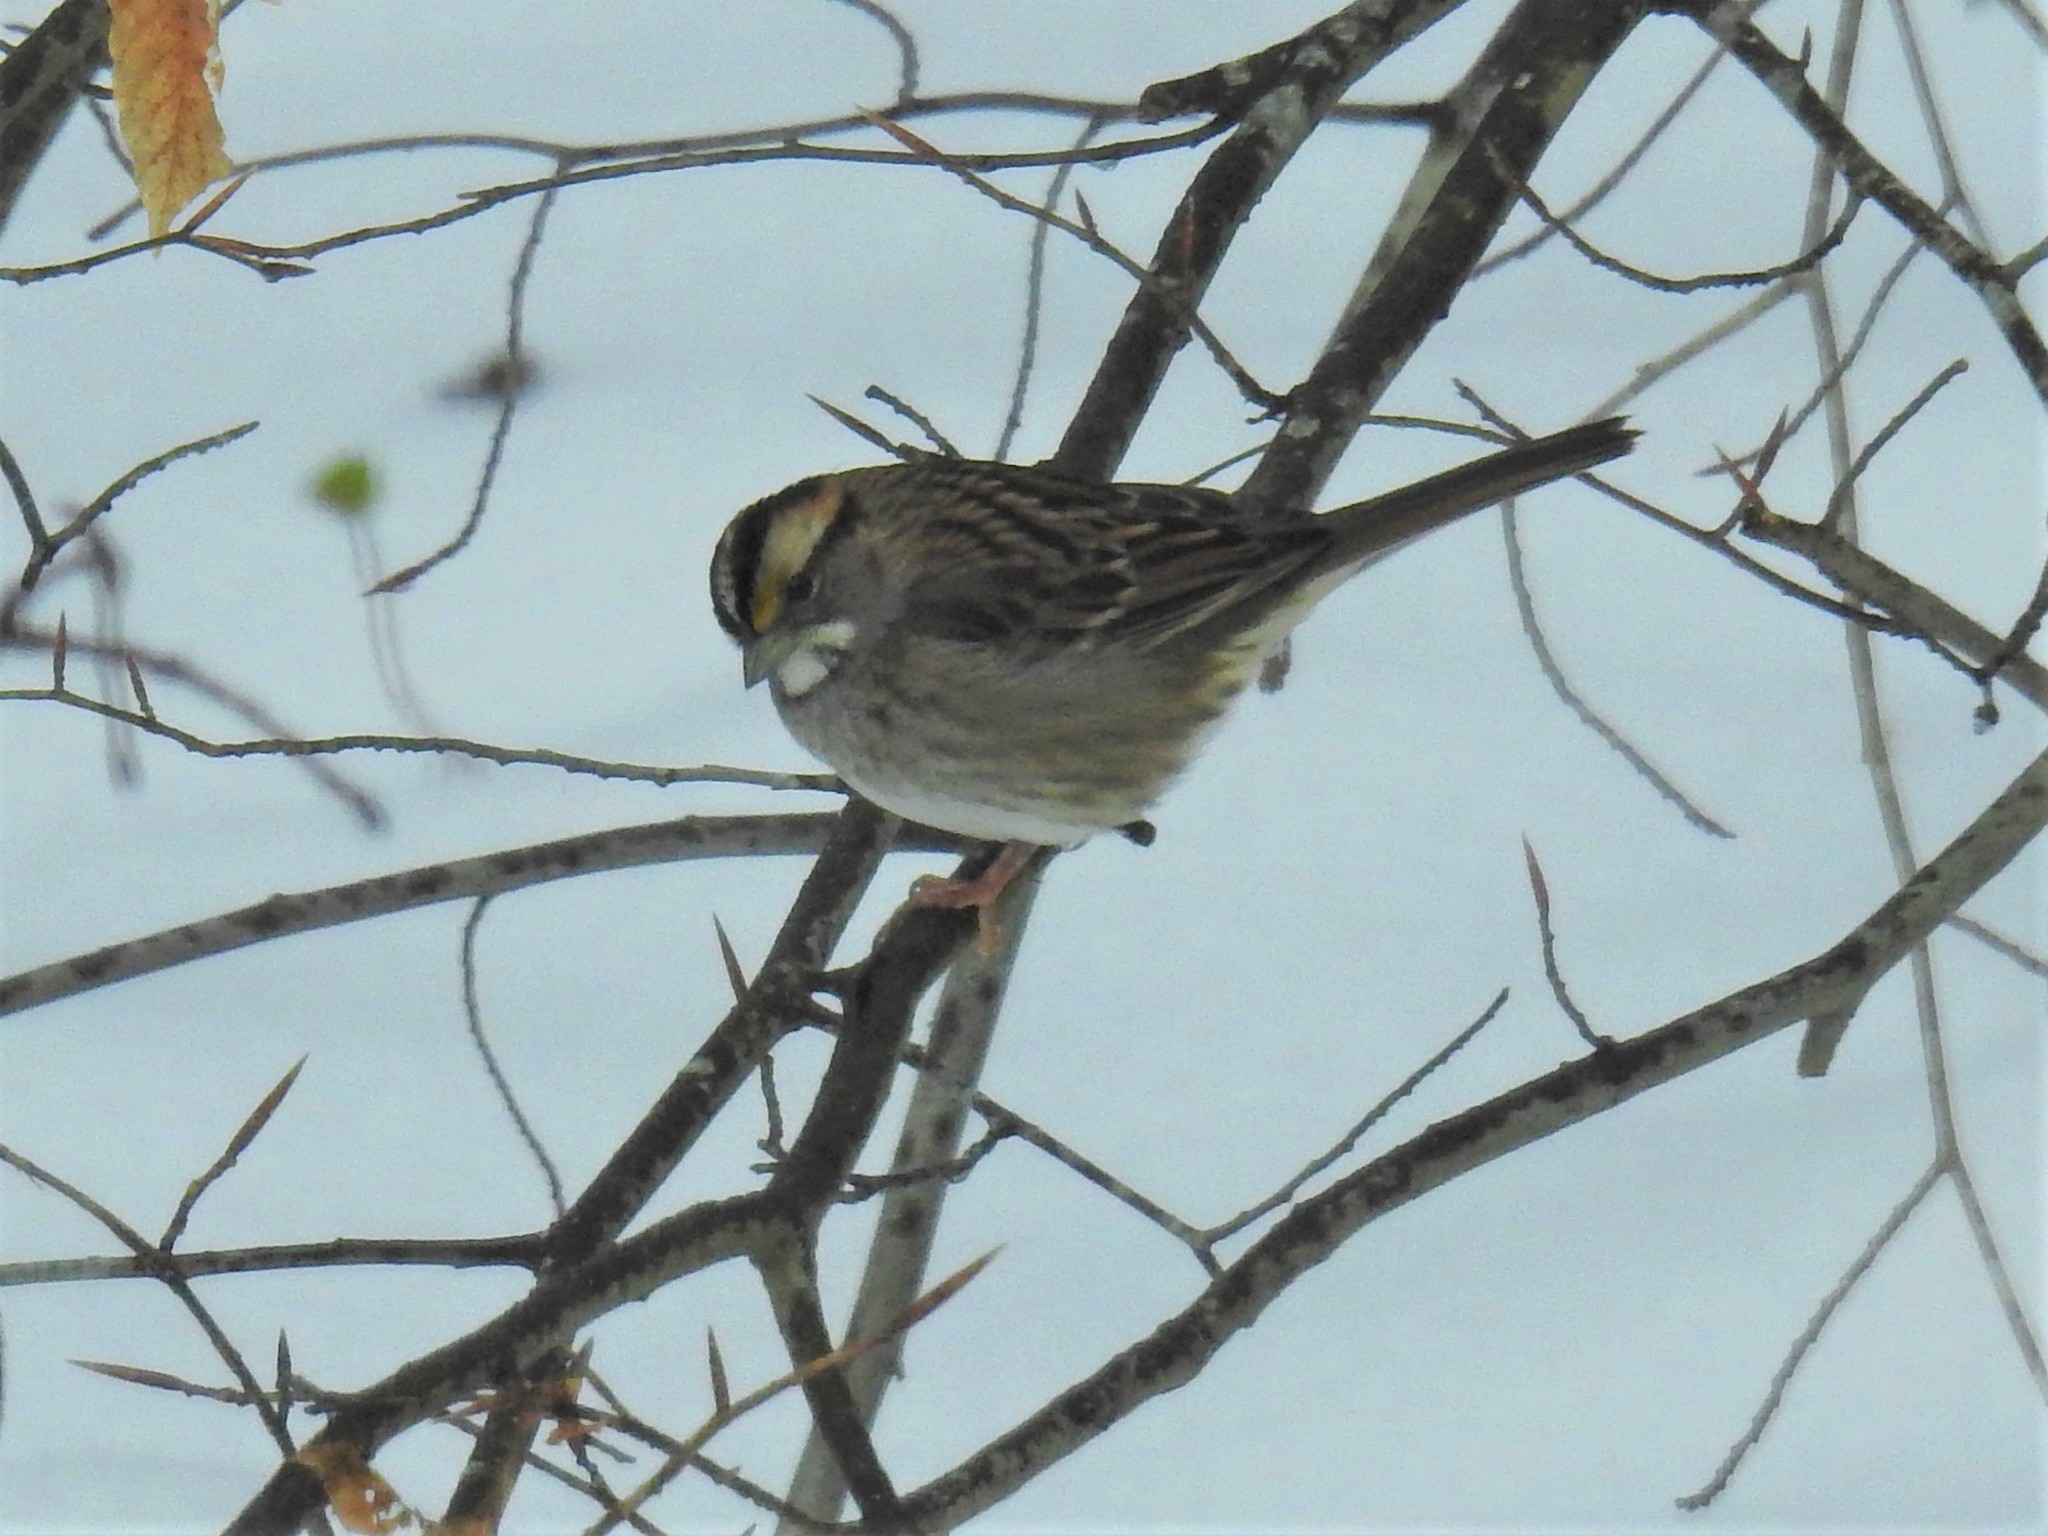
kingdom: Animalia
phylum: Chordata
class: Aves
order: Passeriformes
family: Passerellidae
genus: Zonotrichia
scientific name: Zonotrichia albicollis
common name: White-throated sparrow
